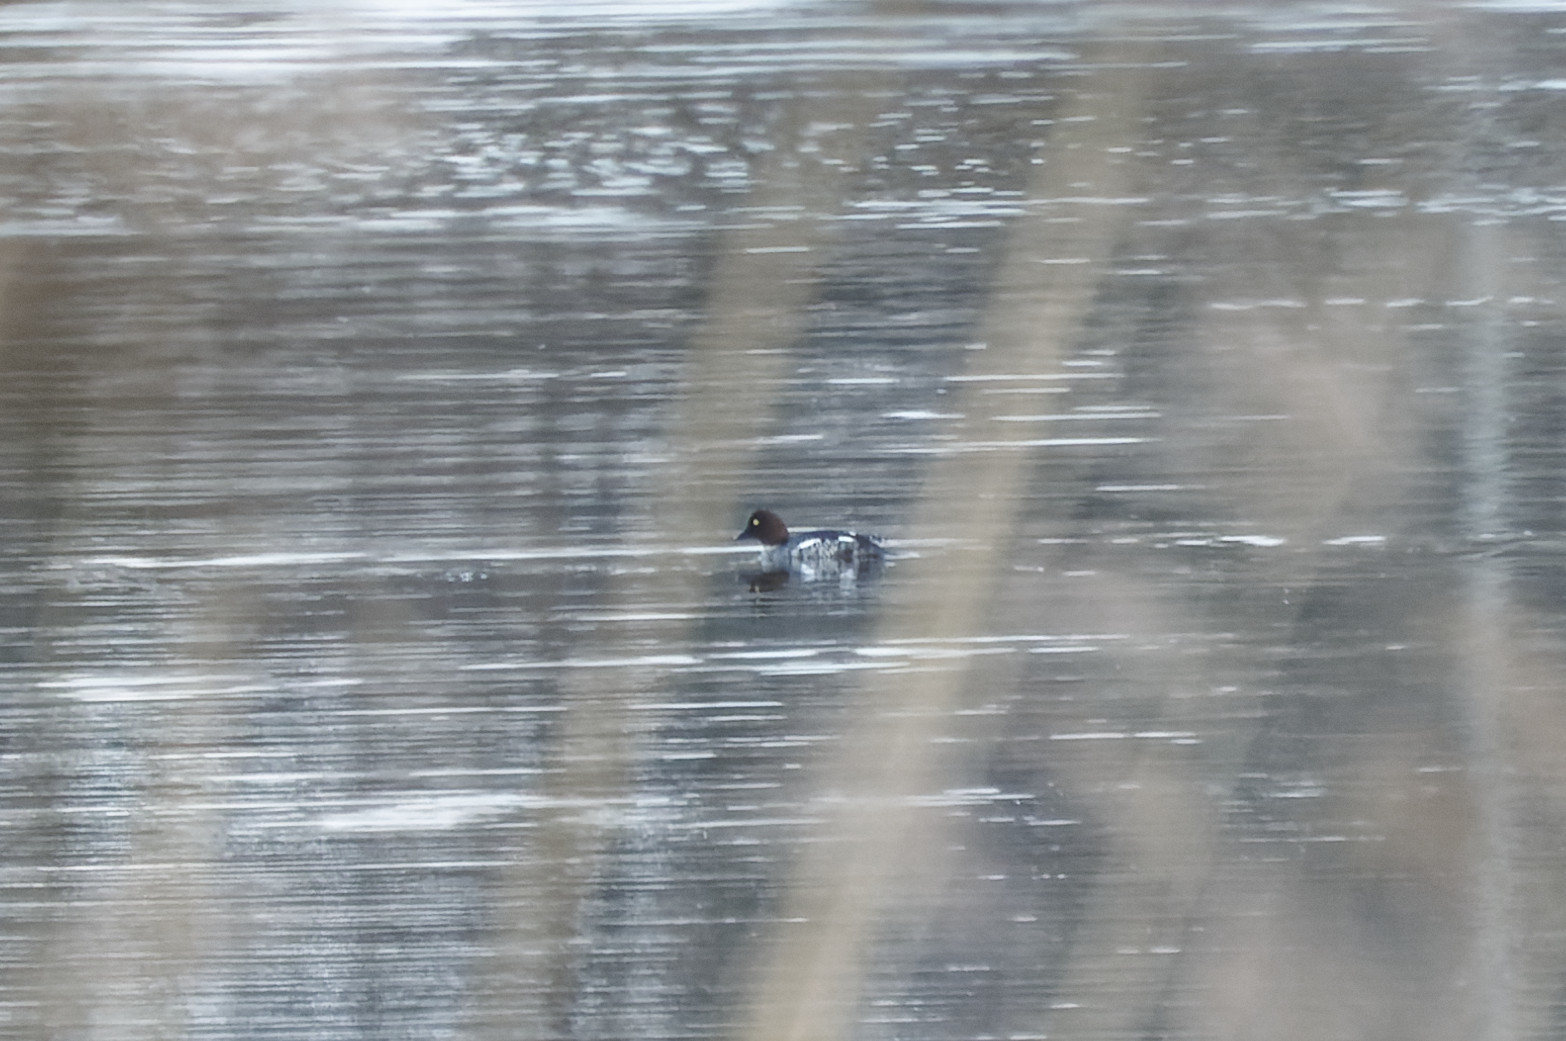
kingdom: Animalia
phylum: Chordata
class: Aves
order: Anseriformes
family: Anatidae
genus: Bucephala
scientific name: Bucephala clangula
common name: Common goldeneye
